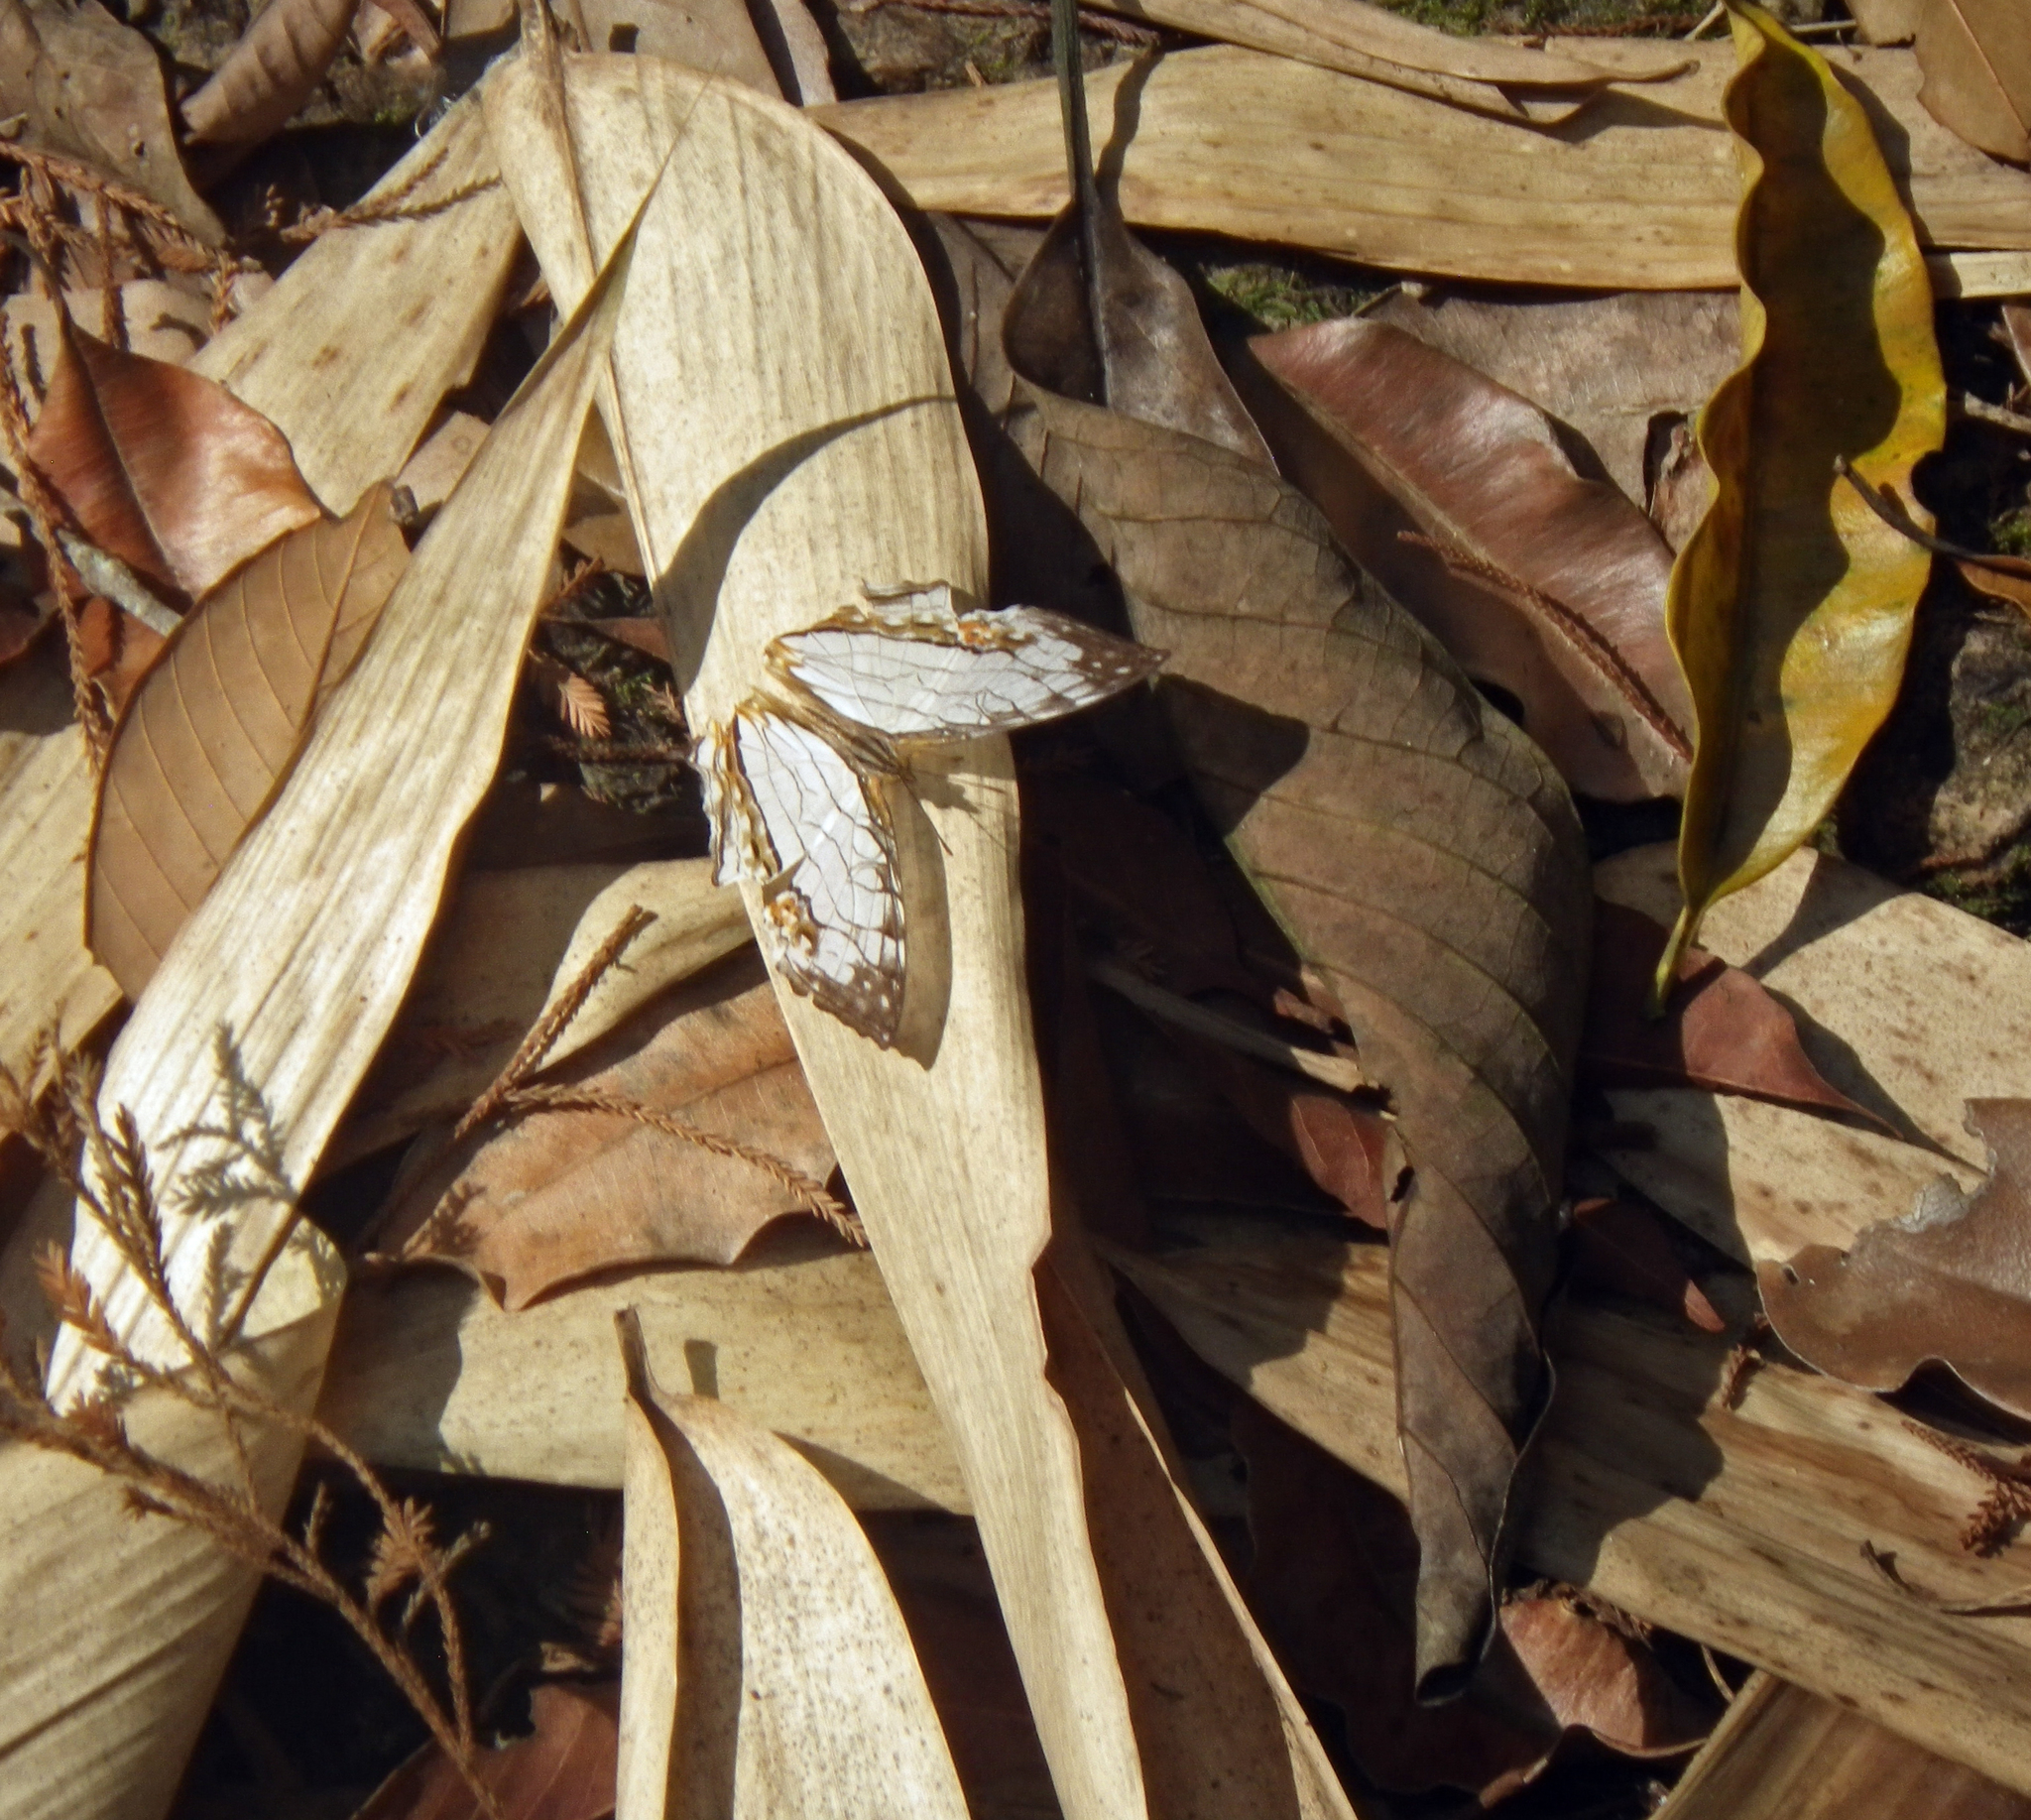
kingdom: Animalia
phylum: Arthropoda
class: Insecta
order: Lepidoptera
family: Nymphalidae
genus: Cyrestis
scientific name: Cyrestis thyodamas
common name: Common mapwing
